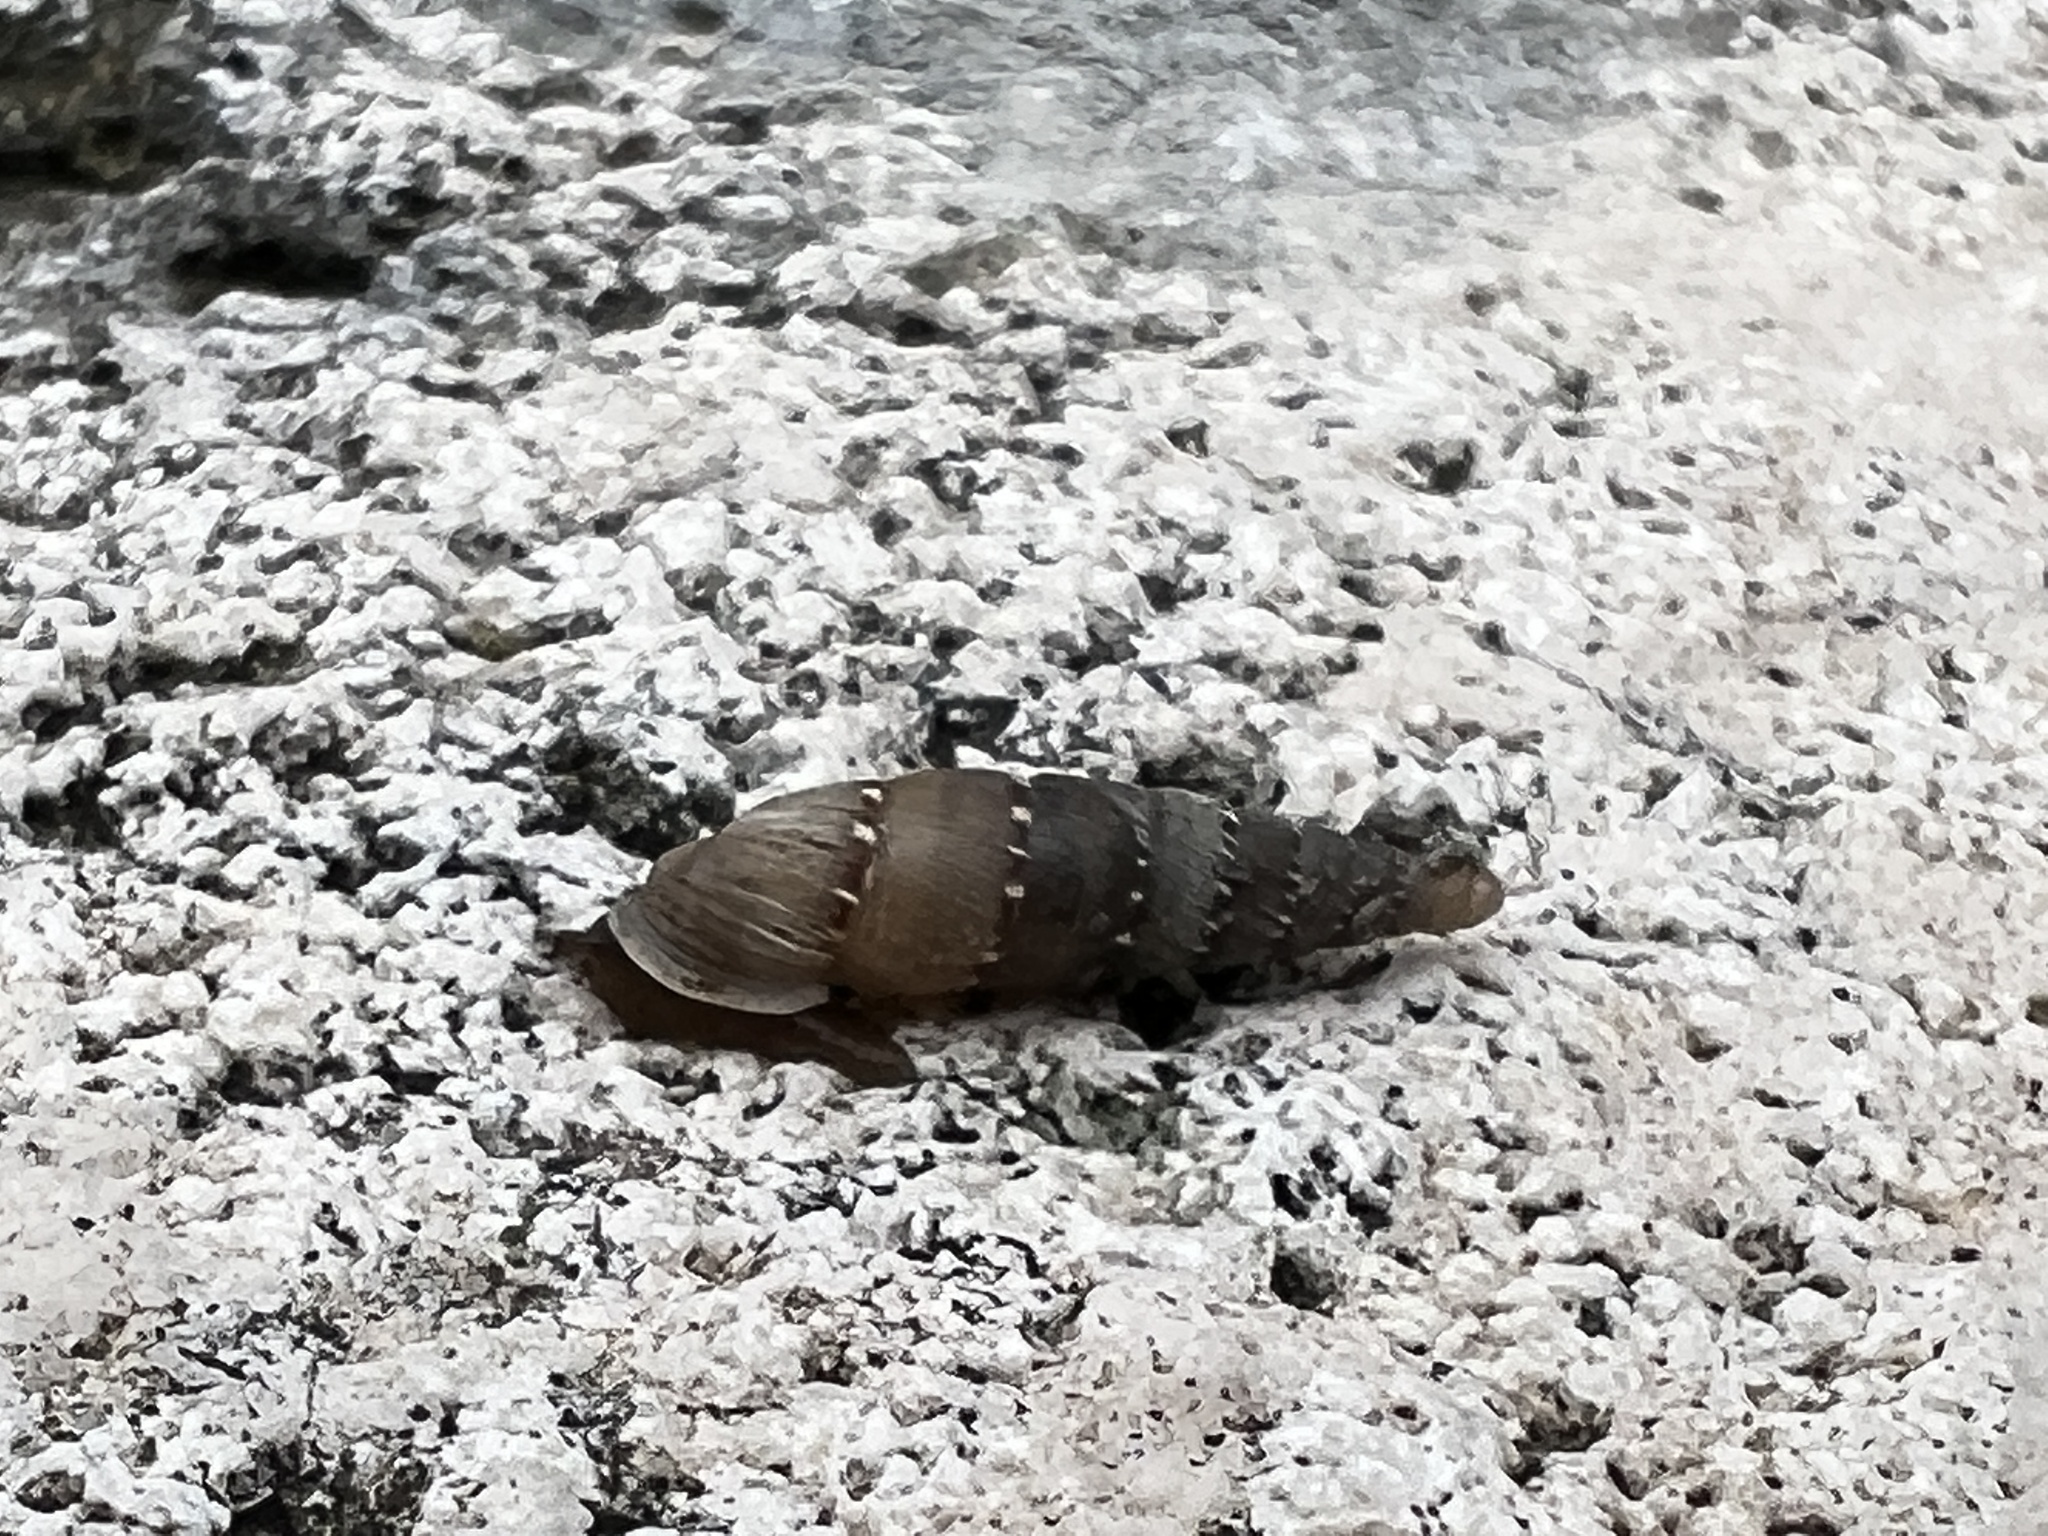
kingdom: Animalia
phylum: Mollusca
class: Gastropoda
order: Stylommatophora
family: Clausiliidae
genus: Papillifera
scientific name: Papillifera papillaris
